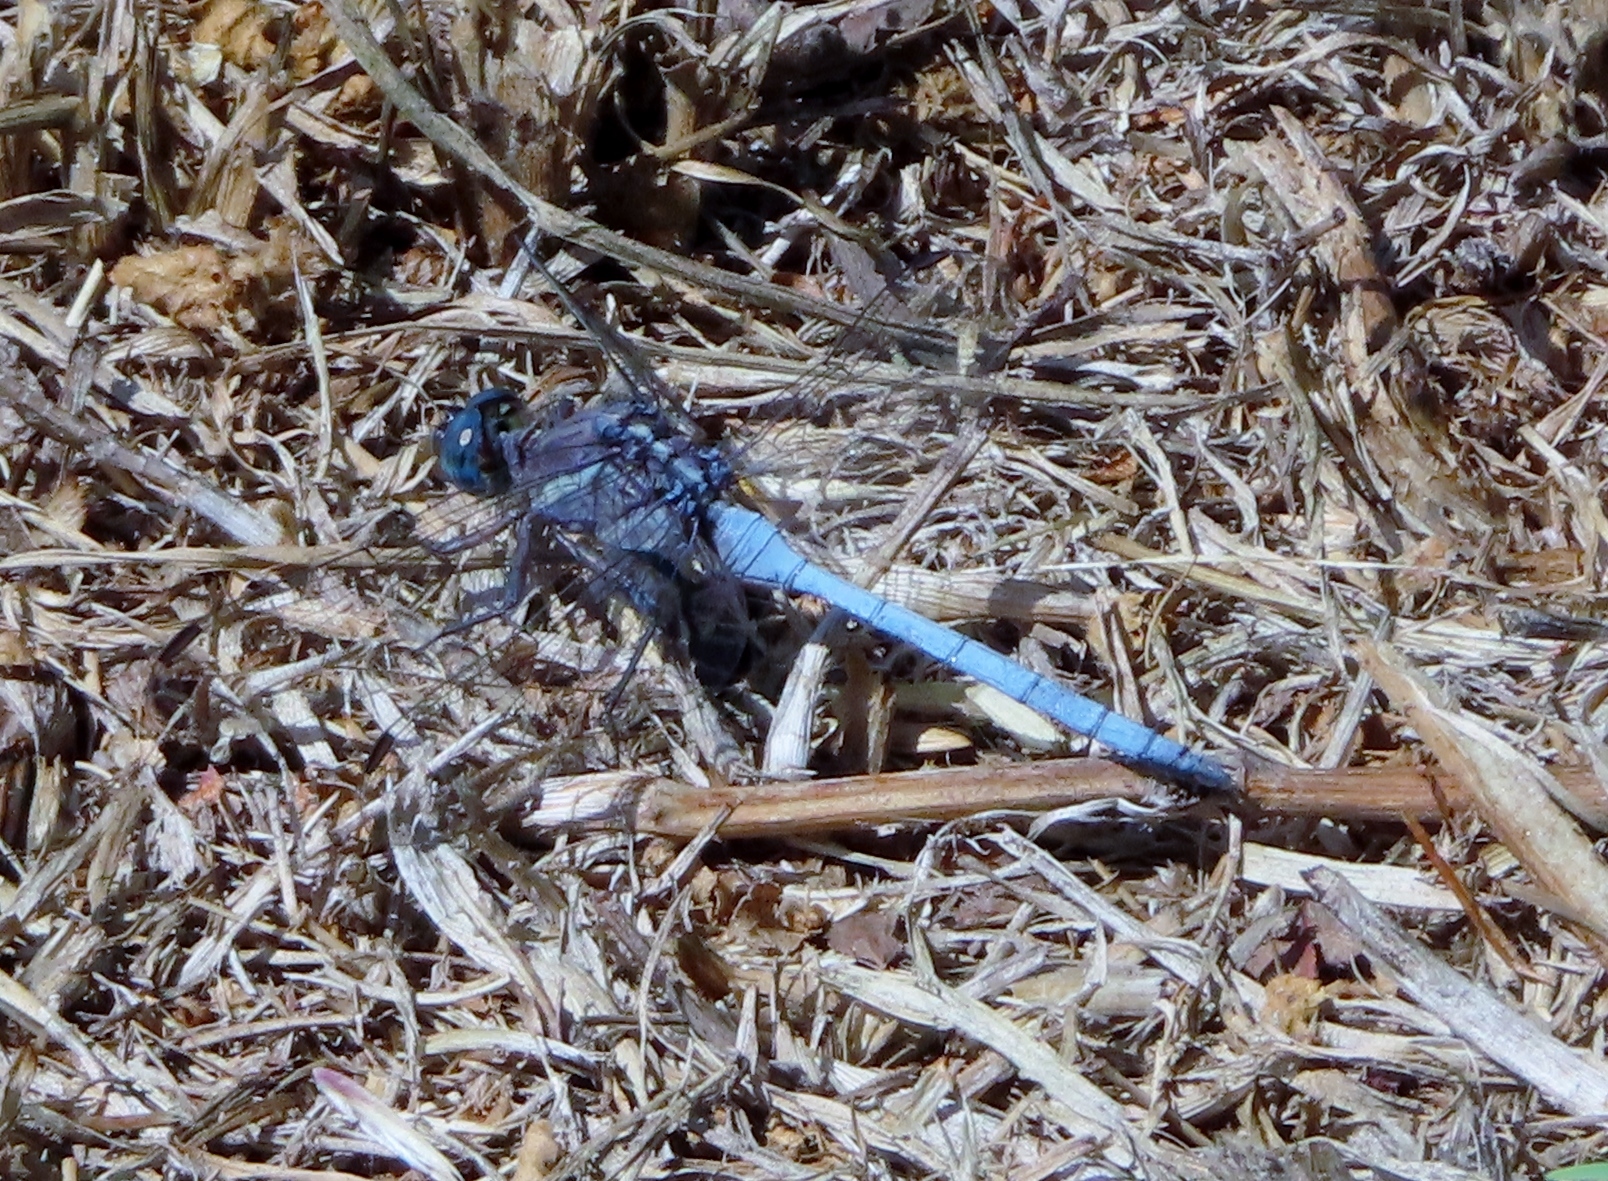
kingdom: Animalia
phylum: Arthropoda
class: Insecta
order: Odonata
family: Libellulidae
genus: Orthetrum
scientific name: Orthetrum julia
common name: Julia skimmer
